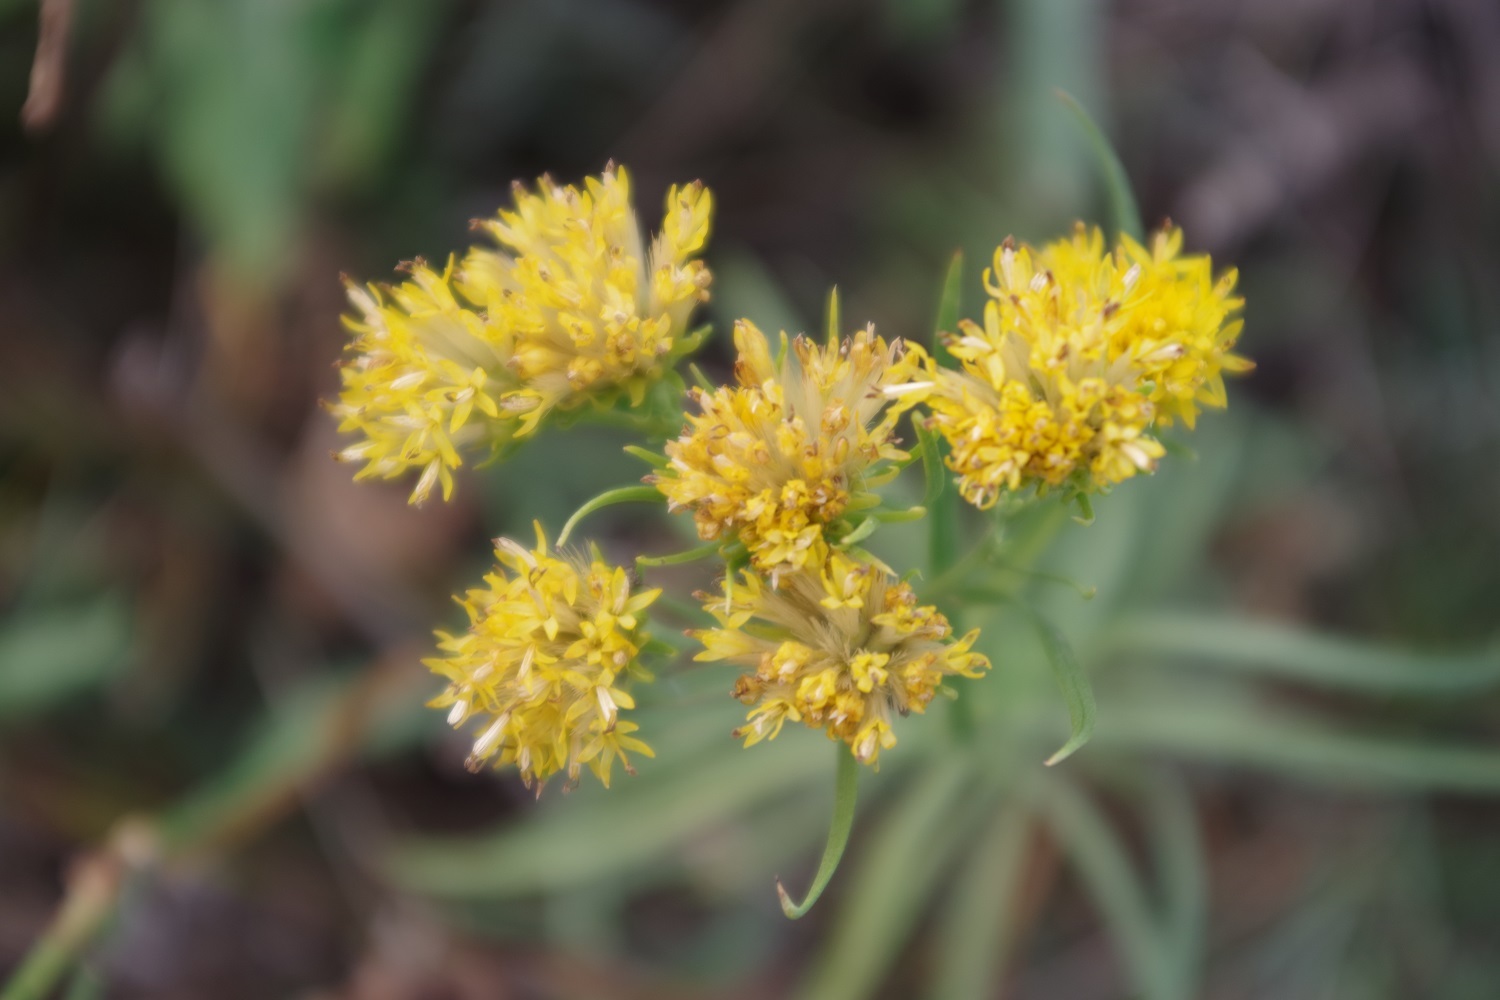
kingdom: Plantae
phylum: Tracheophyta
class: Magnoliopsida
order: Asterales
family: Asteraceae
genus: Galatella
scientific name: Galatella linosyris
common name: Goldilocks aster
